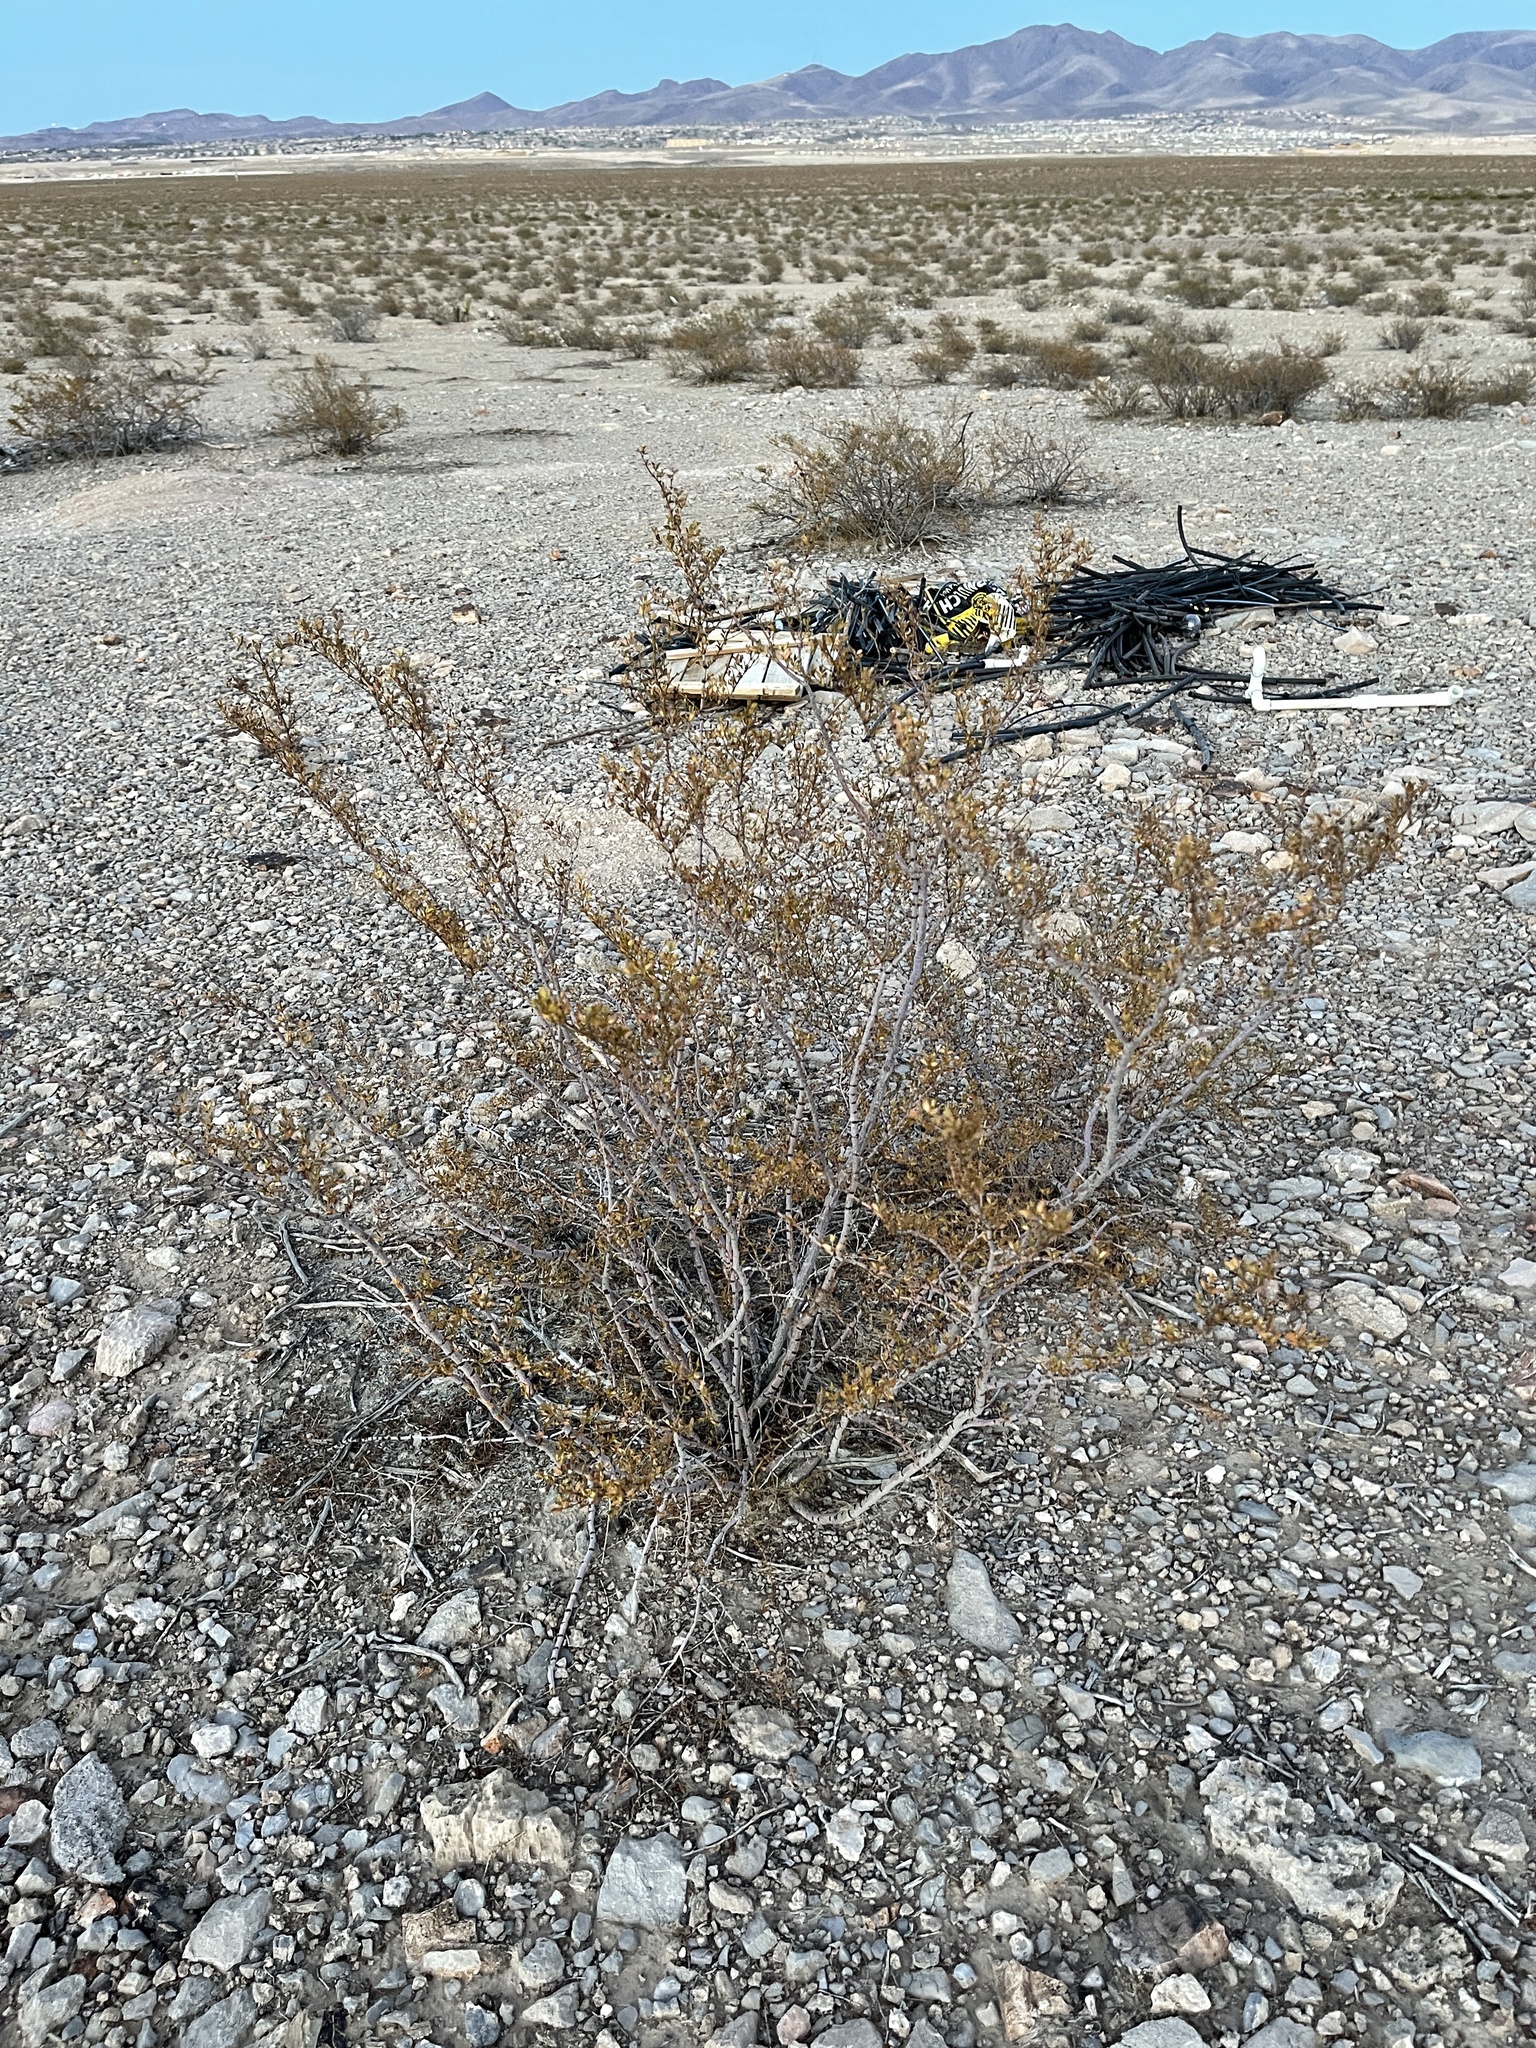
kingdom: Plantae
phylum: Tracheophyta
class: Magnoliopsida
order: Zygophyllales
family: Zygophyllaceae
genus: Larrea
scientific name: Larrea tridentata
